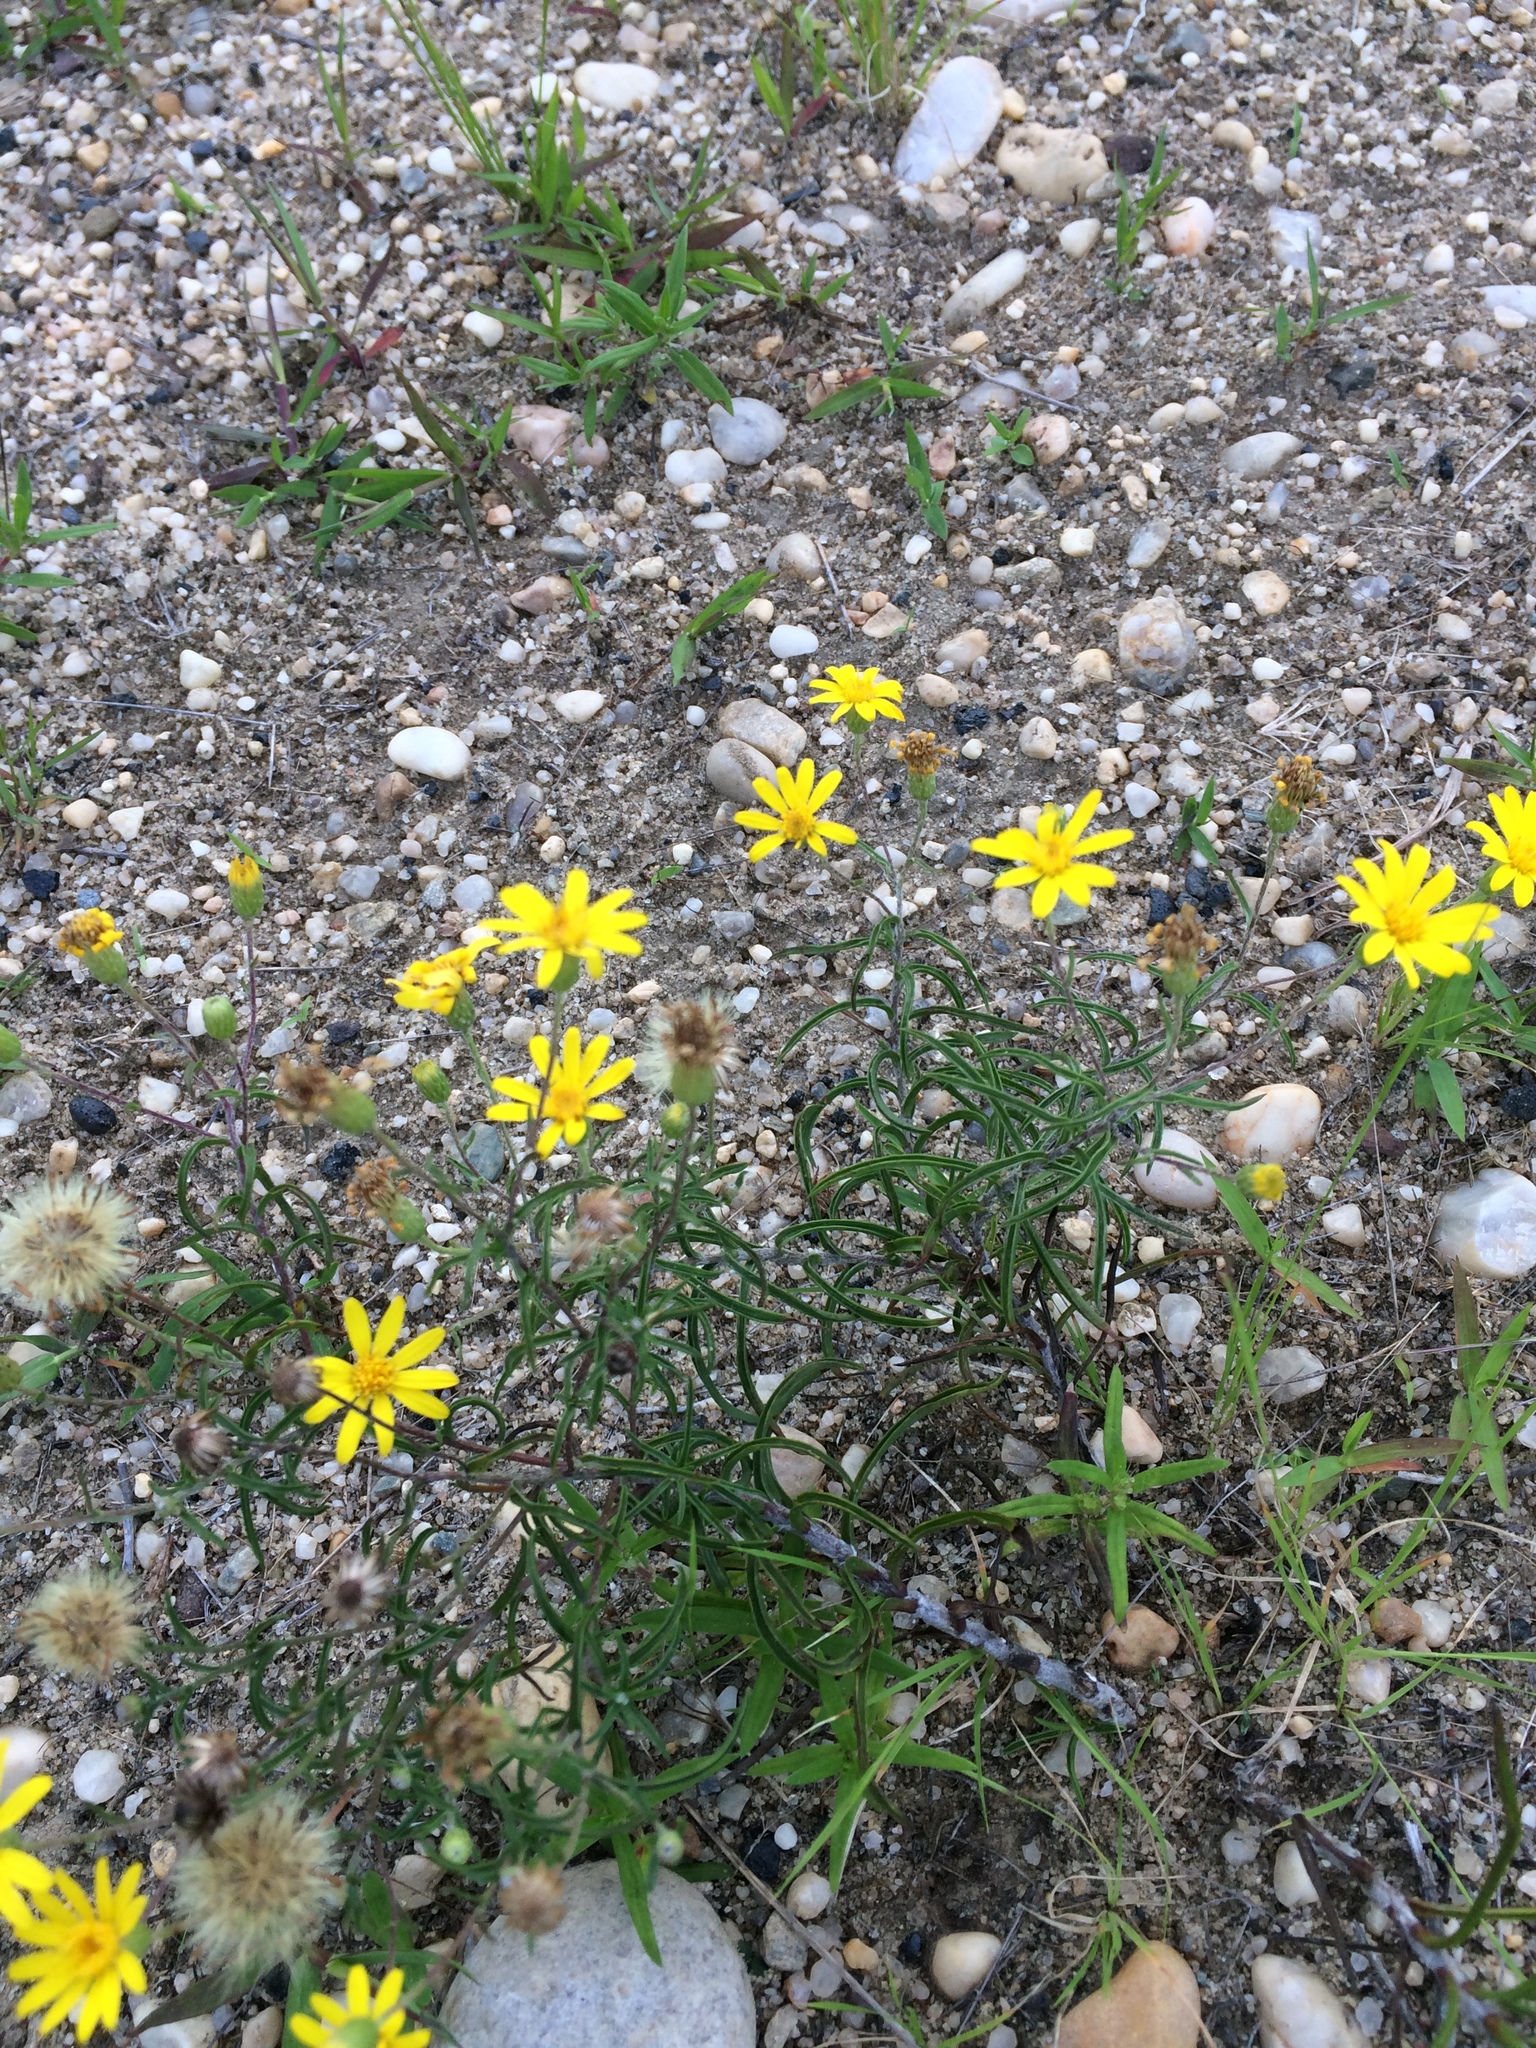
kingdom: Plantae
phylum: Tracheophyta
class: Magnoliopsida
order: Asterales
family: Asteraceae
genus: Pityopsis
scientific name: Pityopsis falcata
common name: Sickle-leaved goldenaster
